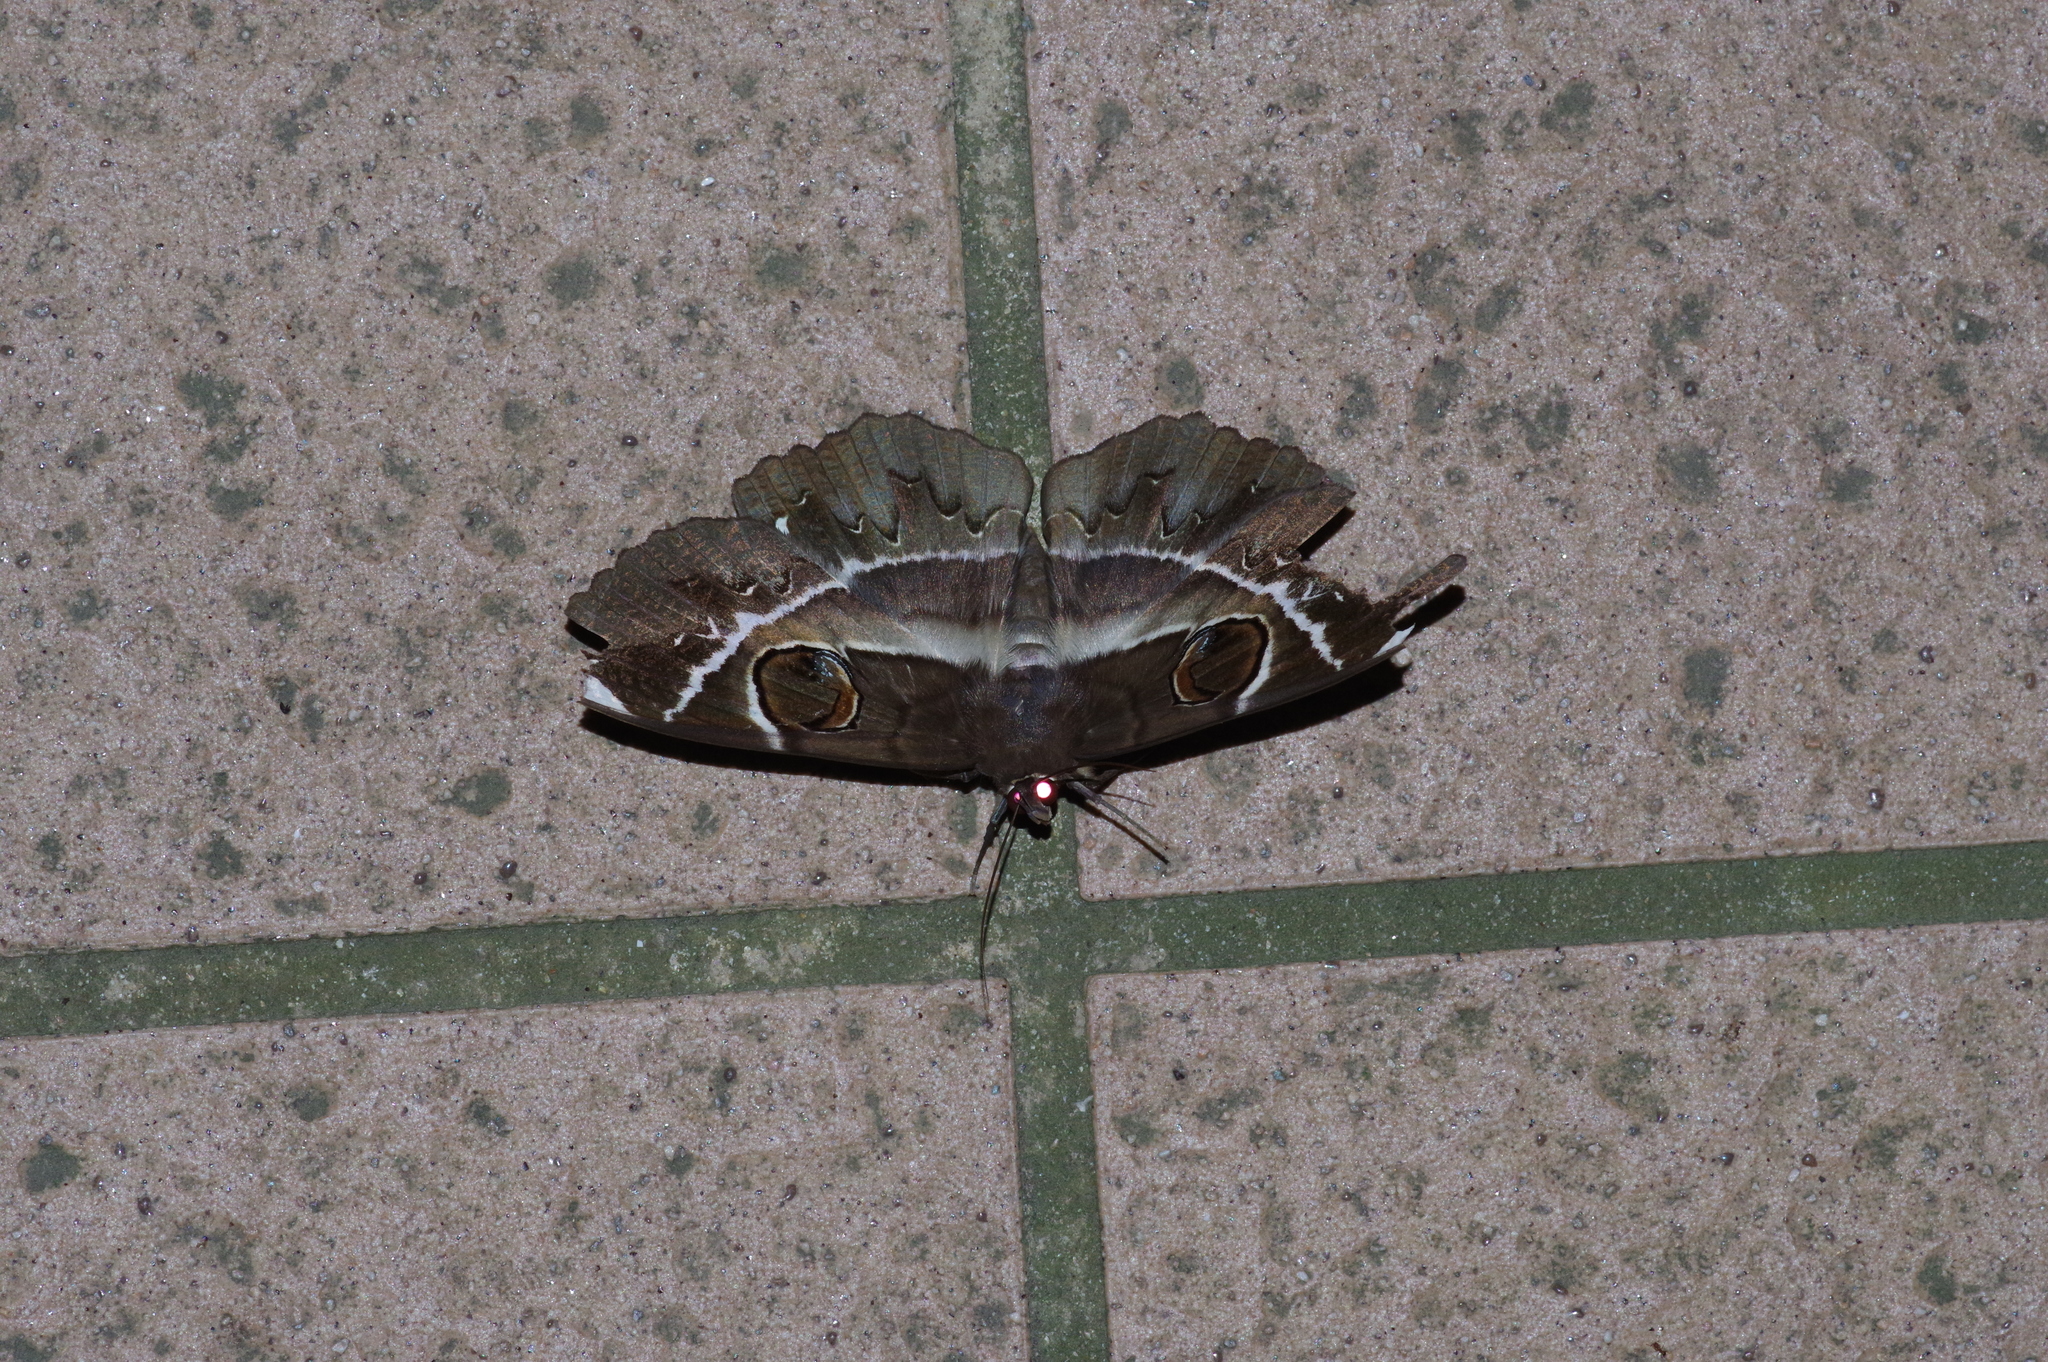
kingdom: Animalia
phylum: Arthropoda
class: Insecta
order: Lepidoptera
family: Erebidae
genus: Erebus
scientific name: Erebus ephesperis
